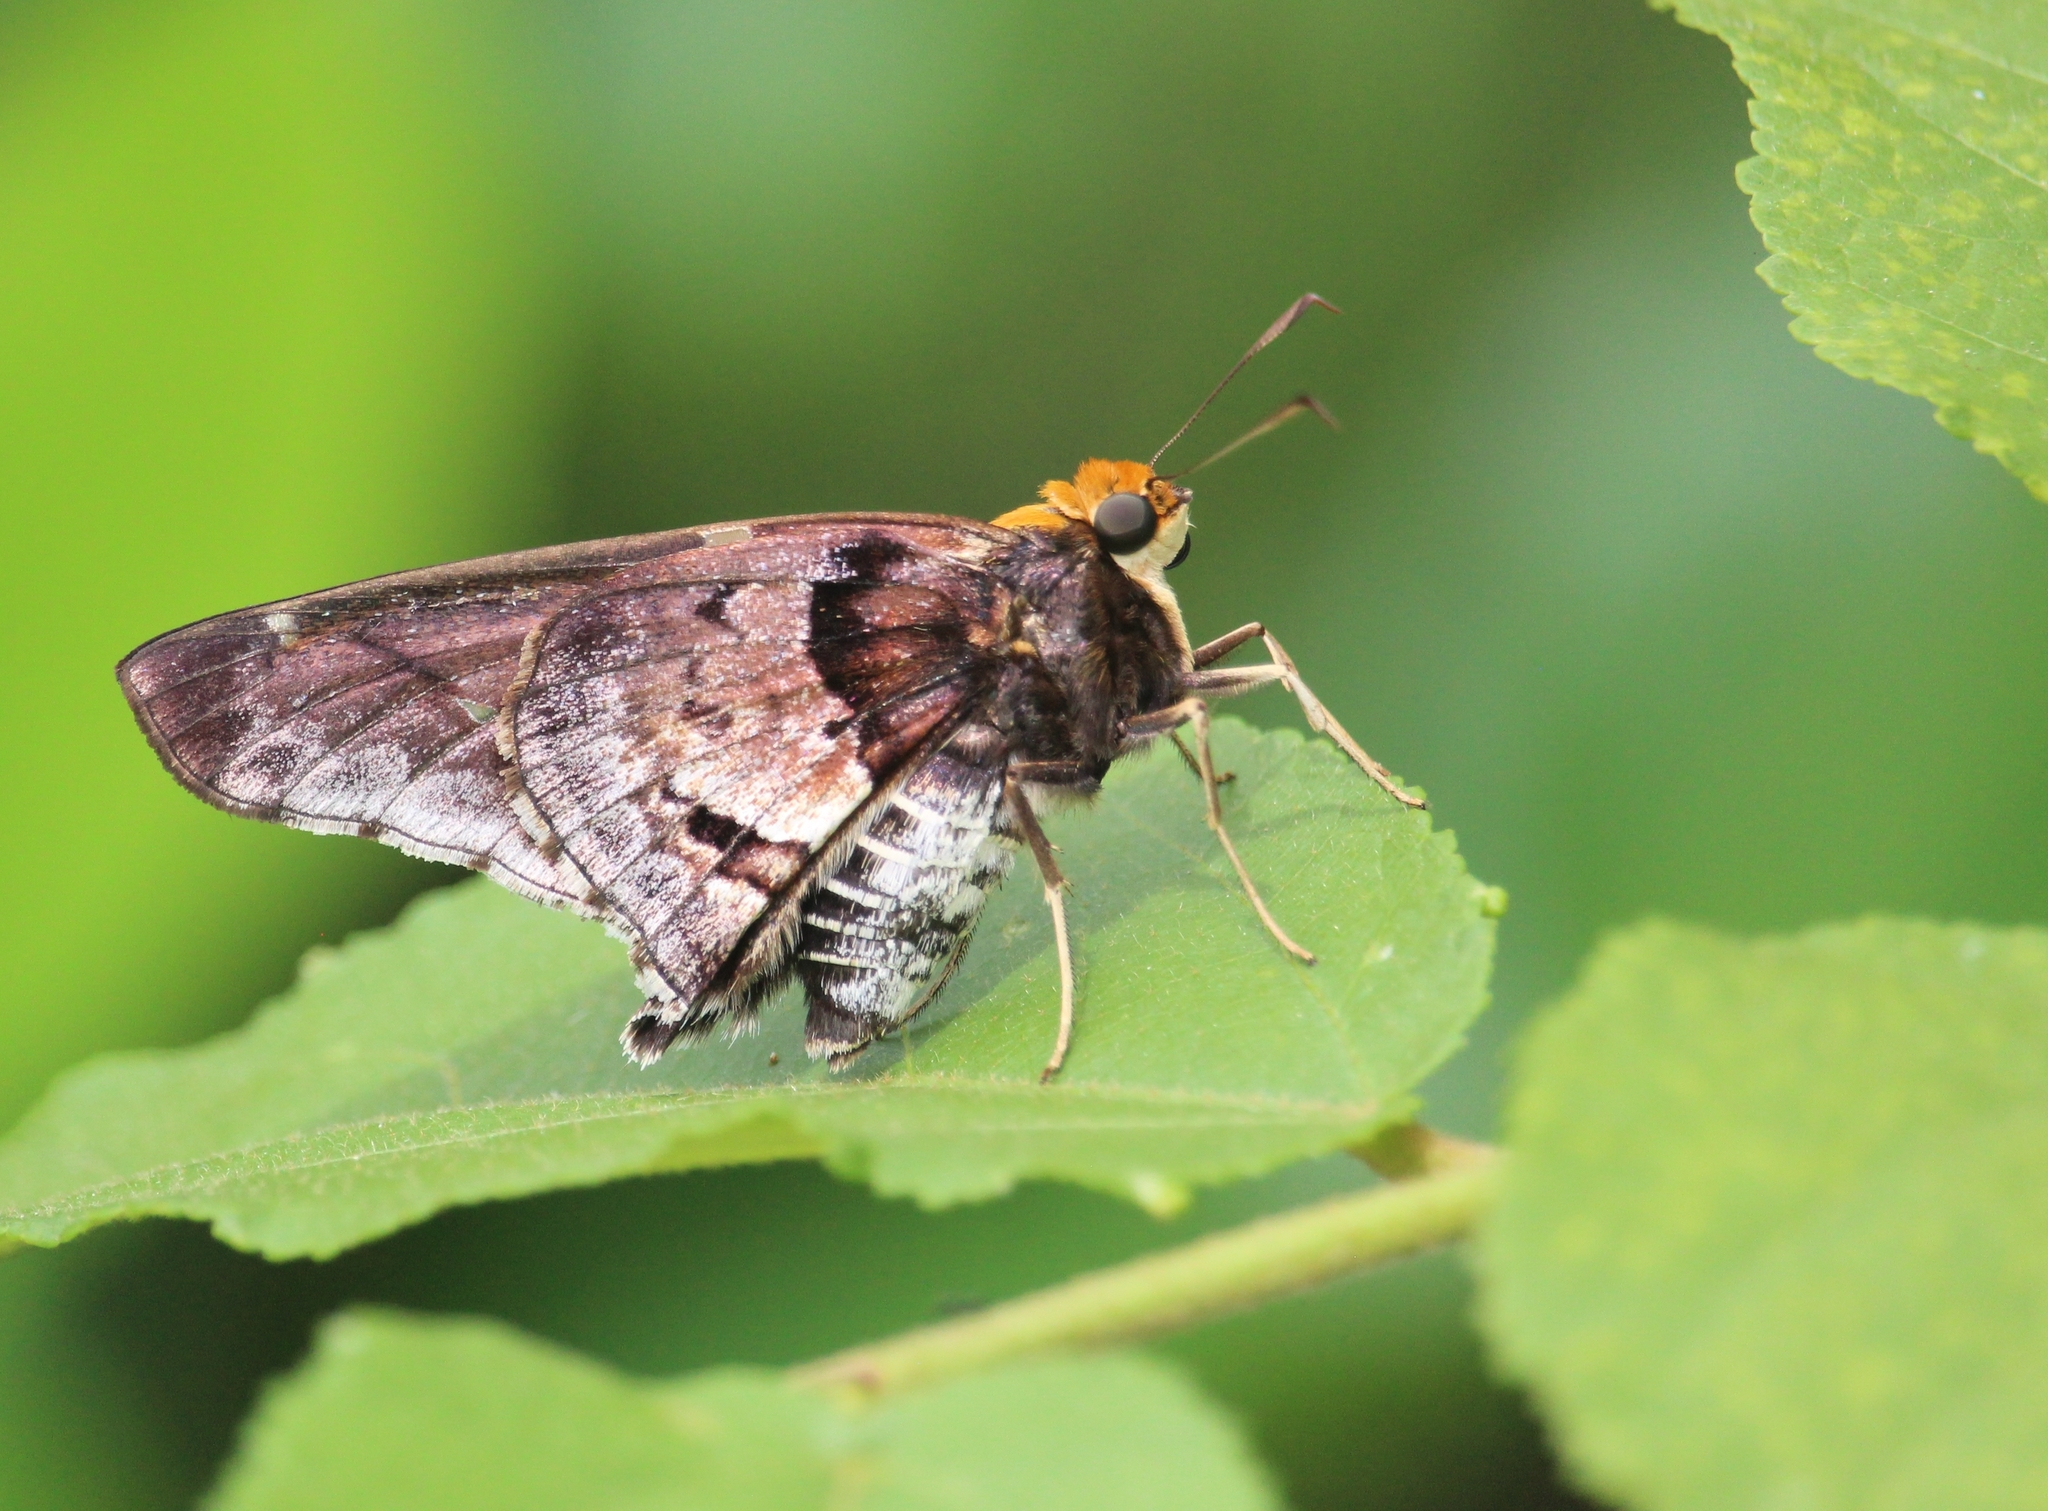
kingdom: Animalia
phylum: Arthropoda
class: Insecta
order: Lepidoptera
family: Hesperiidae
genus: Proteides
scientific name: Proteides mercurius
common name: Mercurial skipper
